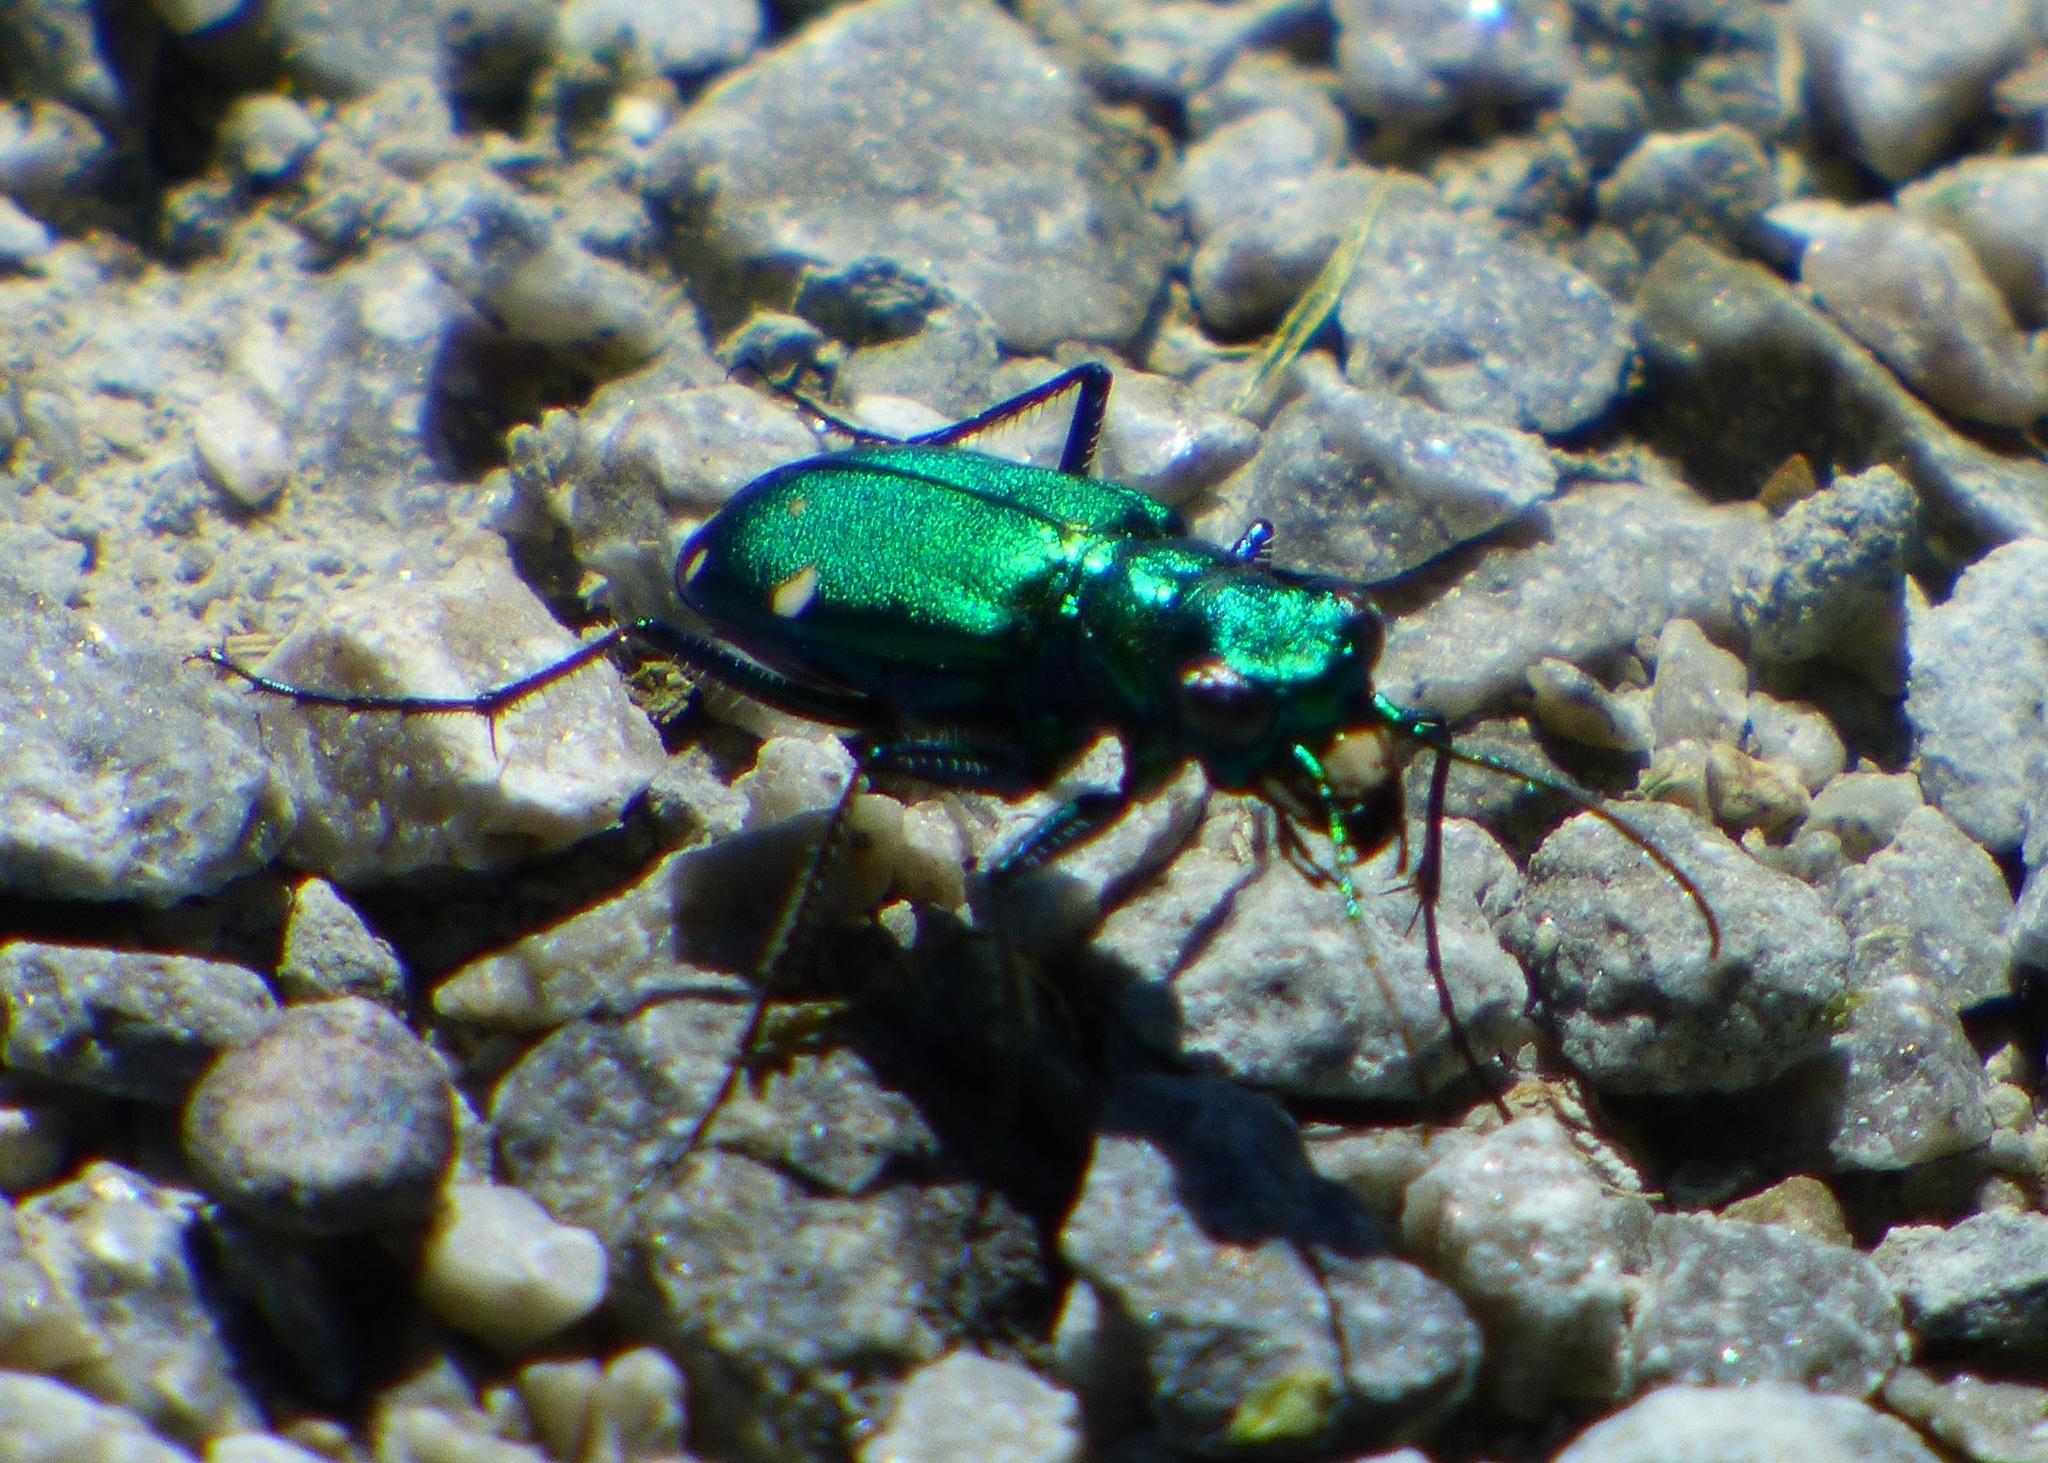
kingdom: Animalia
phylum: Arthropoda
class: Insecta
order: Coleoptera
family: Carabidae
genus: Cicindela
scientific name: Cicindela sexguttata
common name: Six-spotted tiger beetle
